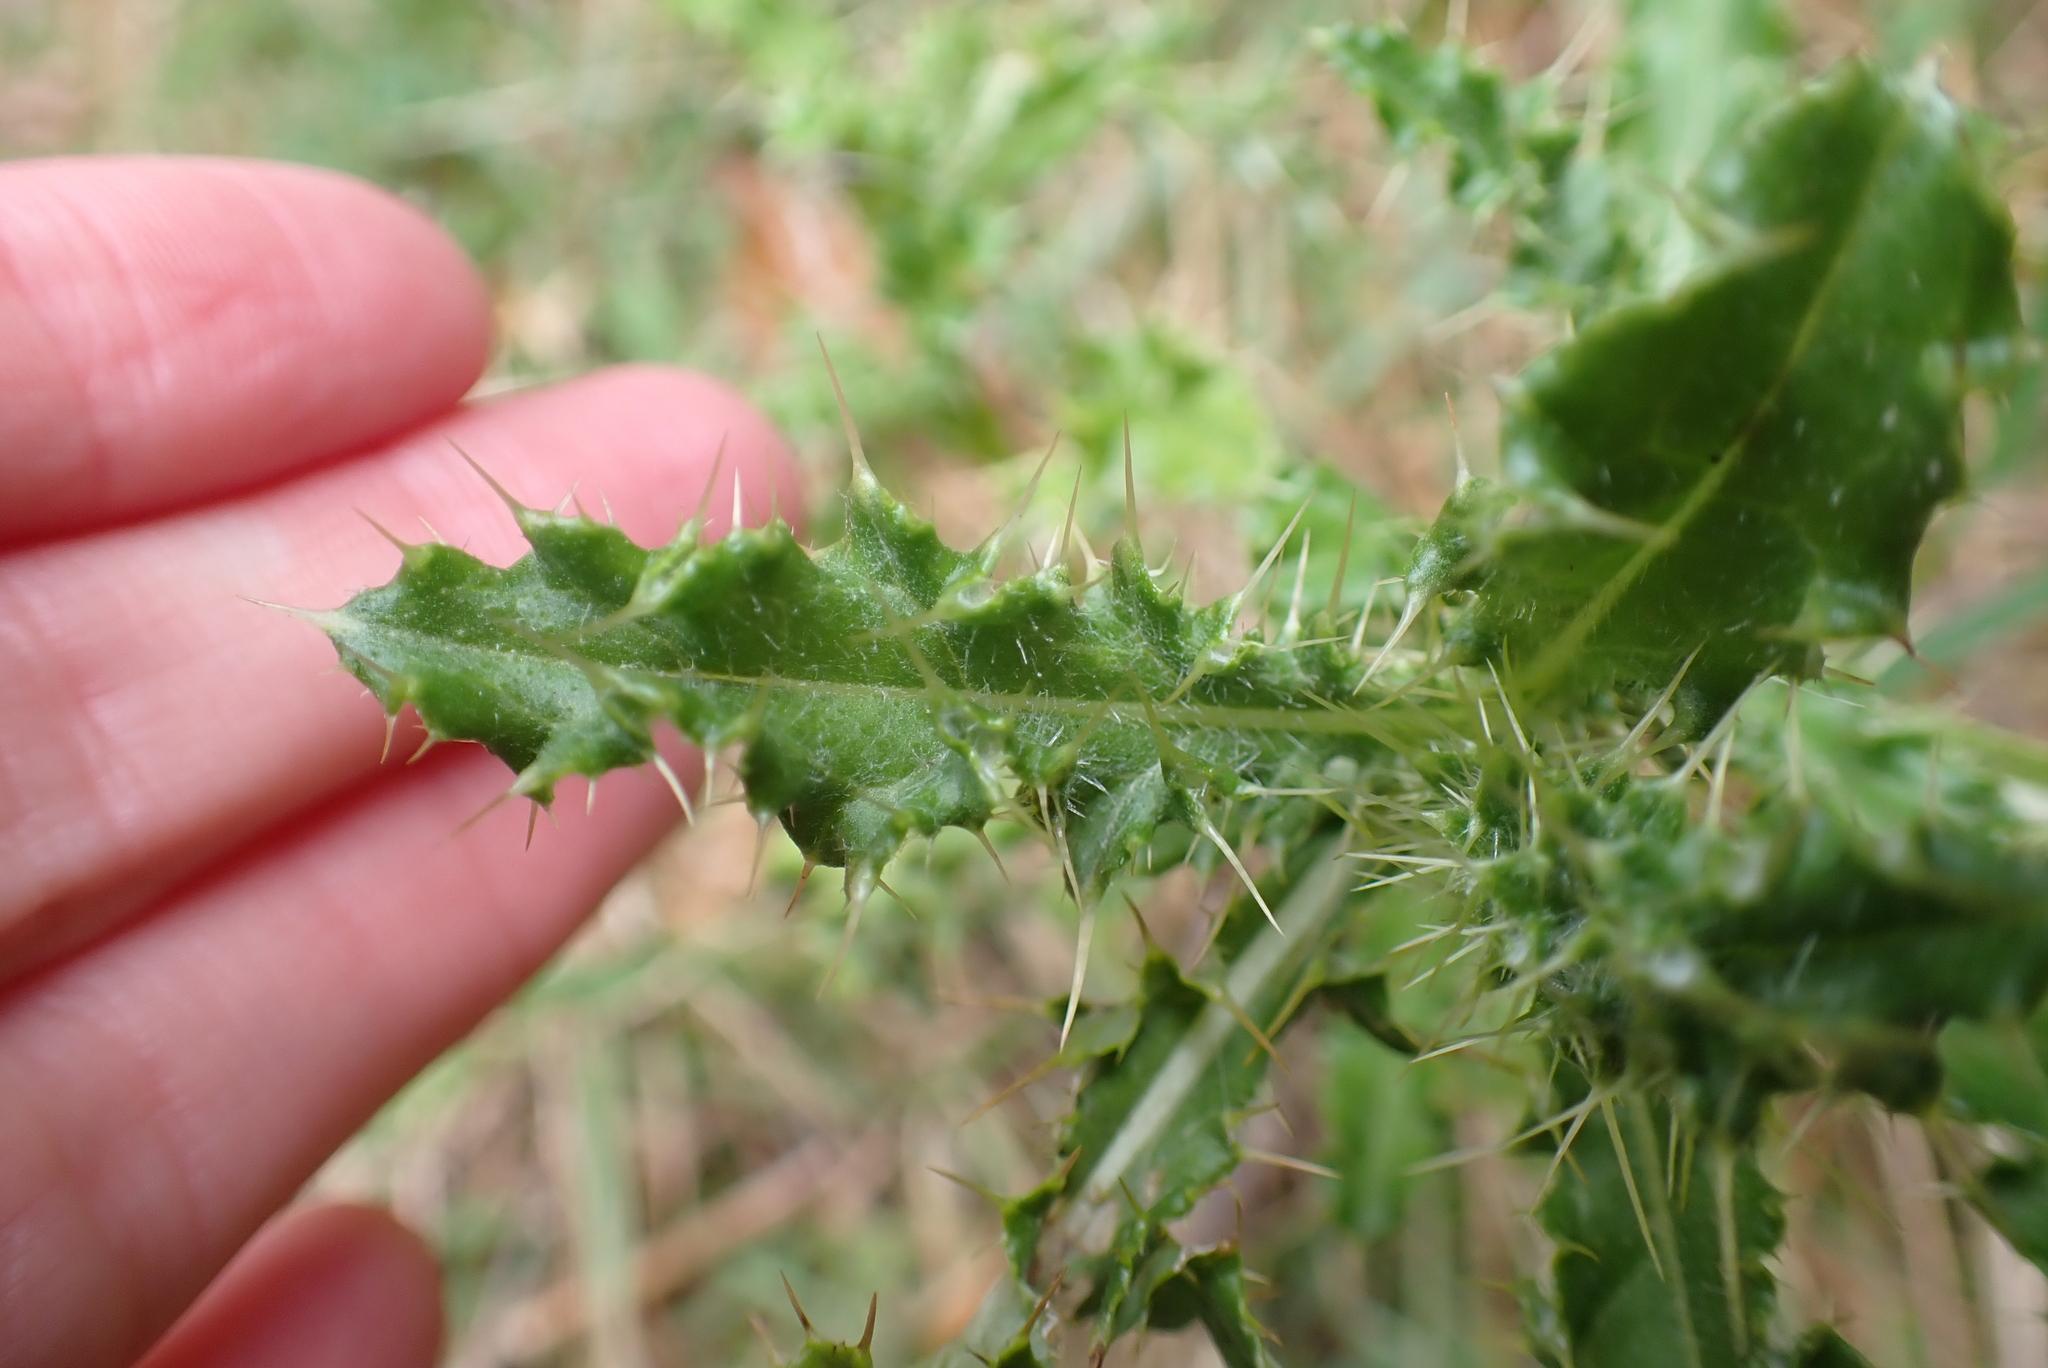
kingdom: Plantae
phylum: Tracheophyta
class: Magnoliopsida
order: Asterales
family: Asteraceae
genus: Cirsium
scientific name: Cirsium arvense
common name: Creeping thistle
